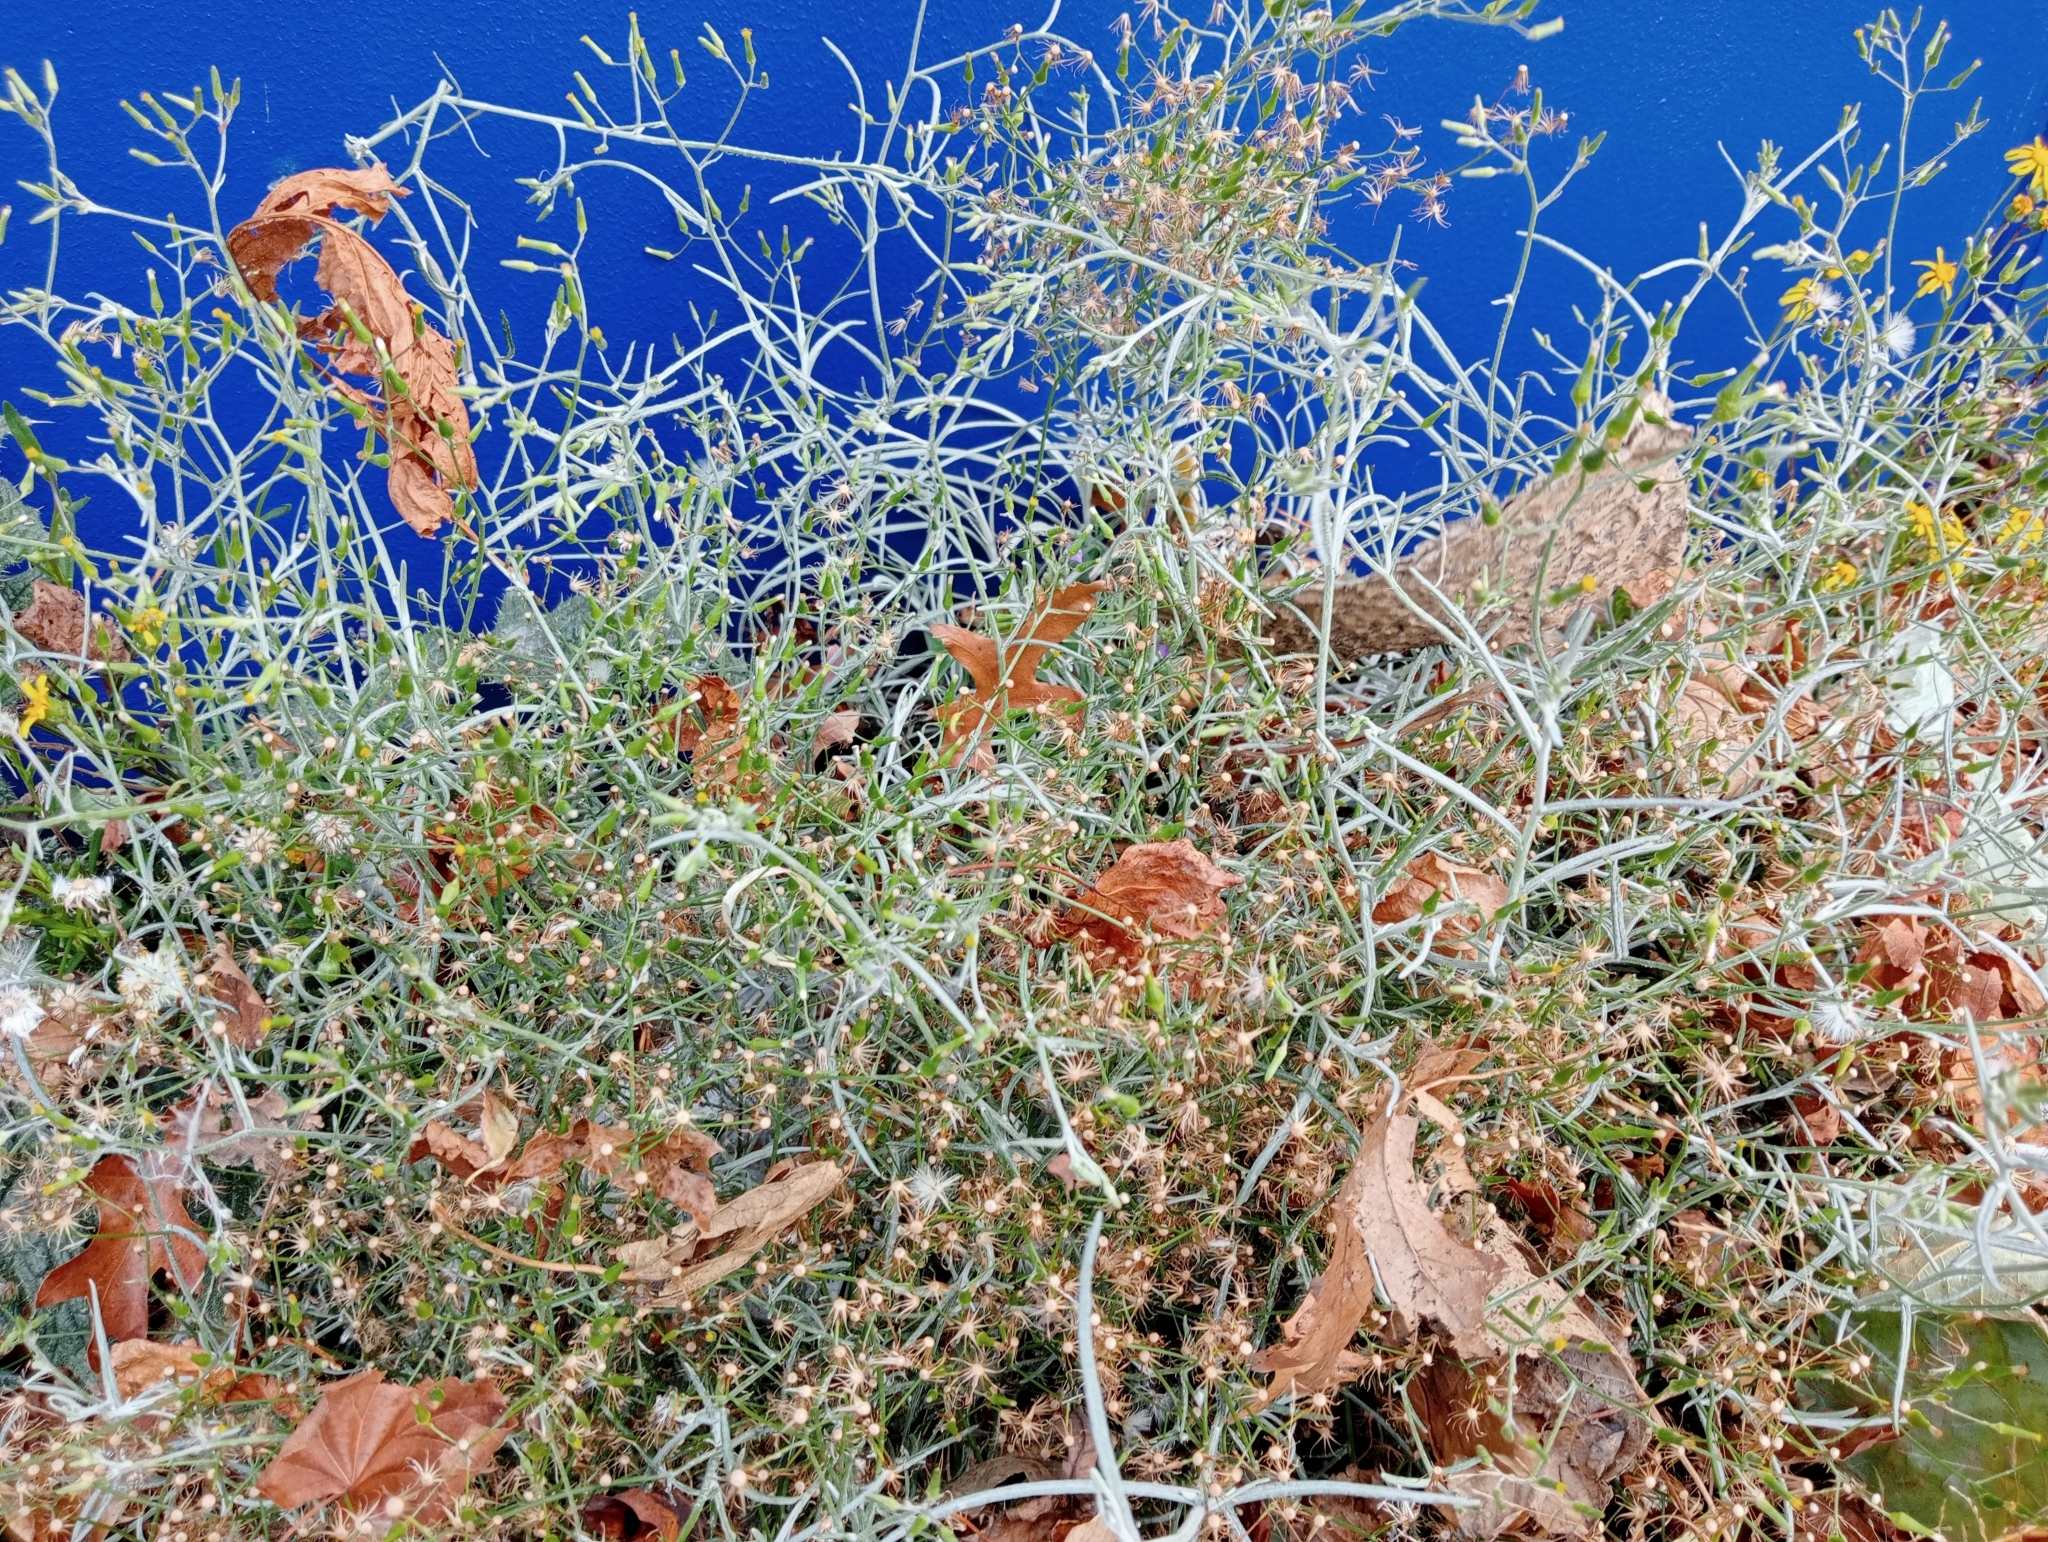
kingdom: Plantae
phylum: Tracheophyta
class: Magnoliopsida
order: Asterales
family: Asteraceae
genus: Senecio
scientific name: Senecio quadridentatus
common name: Cotton fireweed
